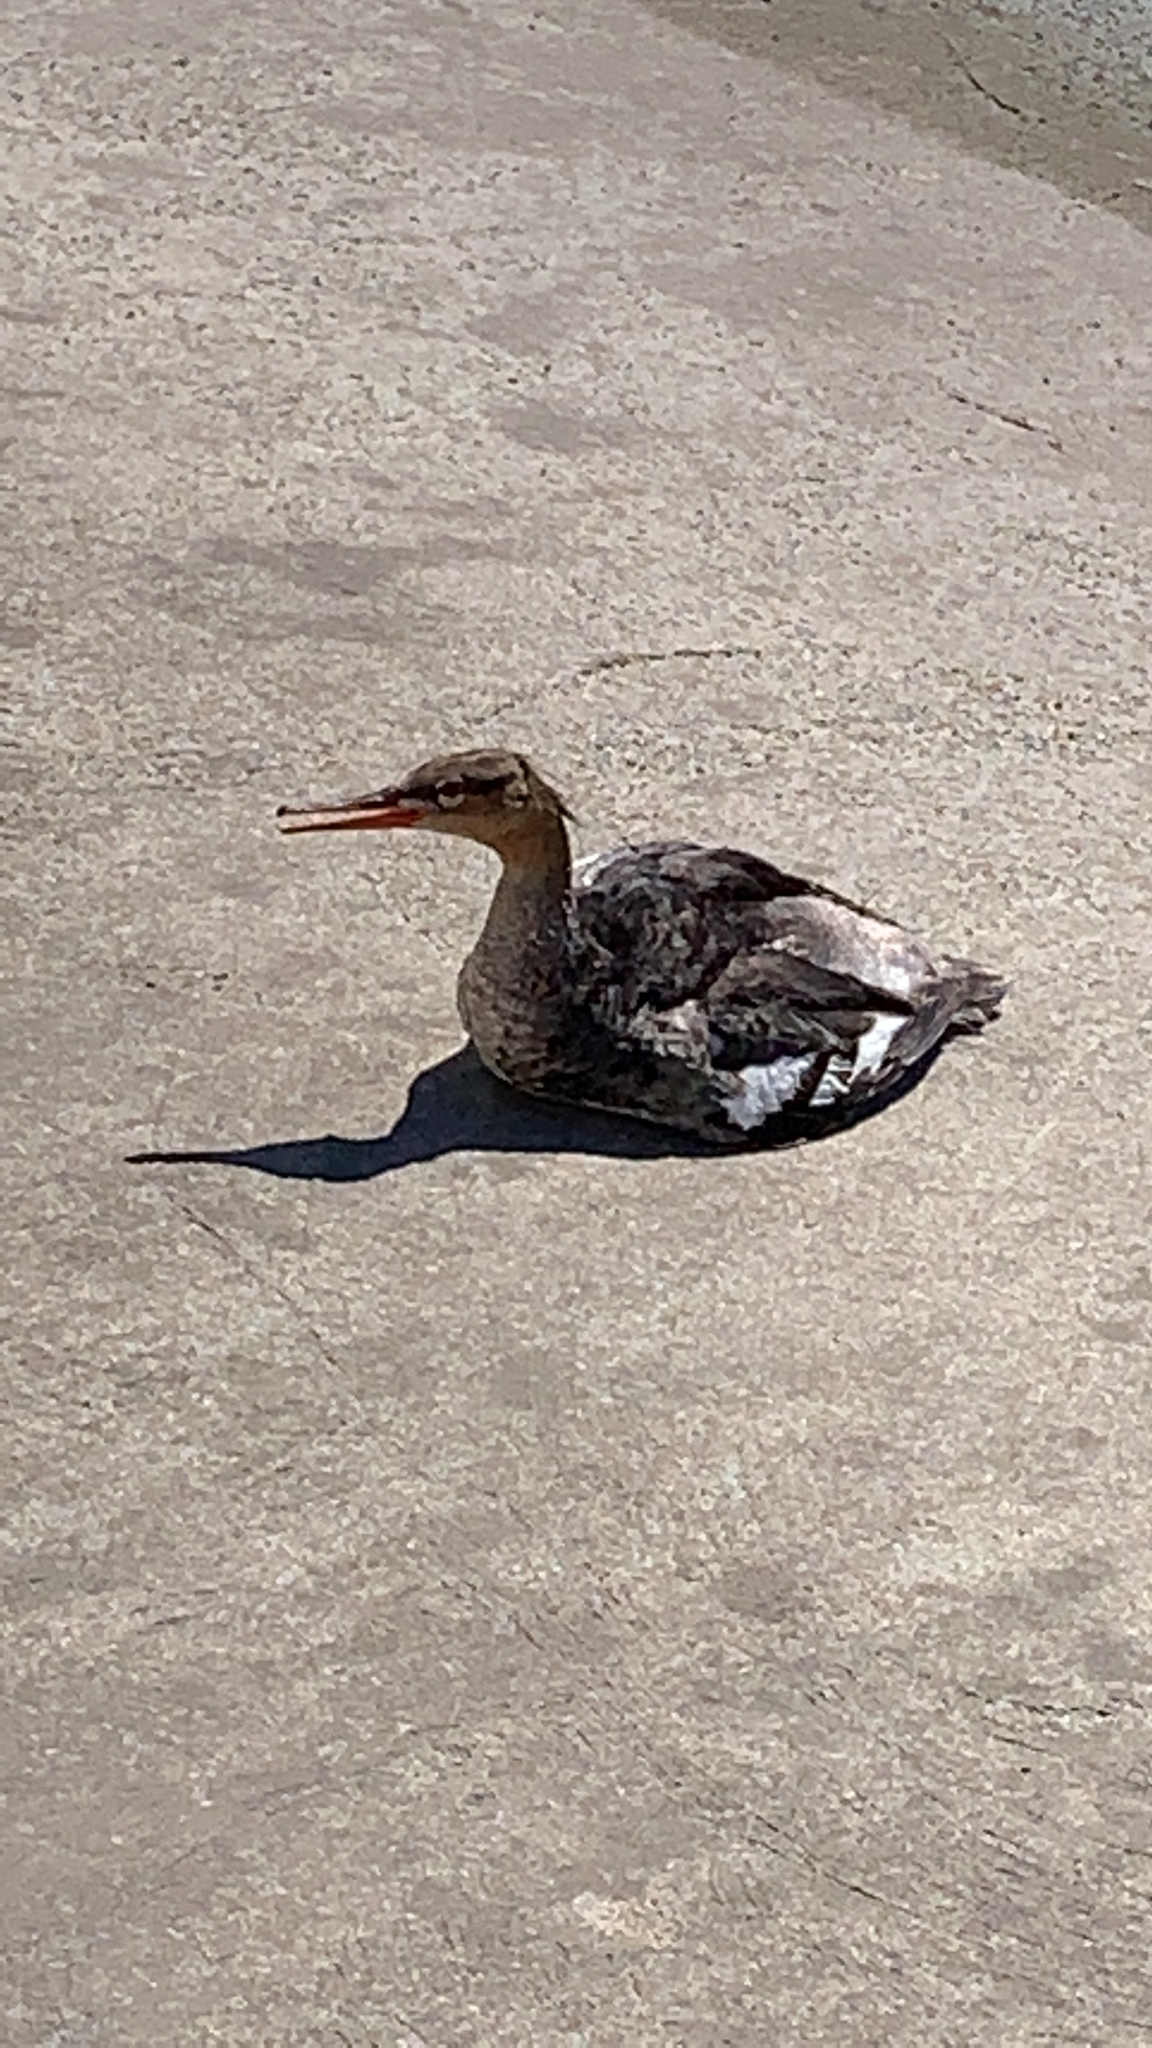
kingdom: Animalia
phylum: Chordata
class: Aves
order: Anseriformes
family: Anatidae
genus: Mergus
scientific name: Mergus serrator
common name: Red-breasted merganser
